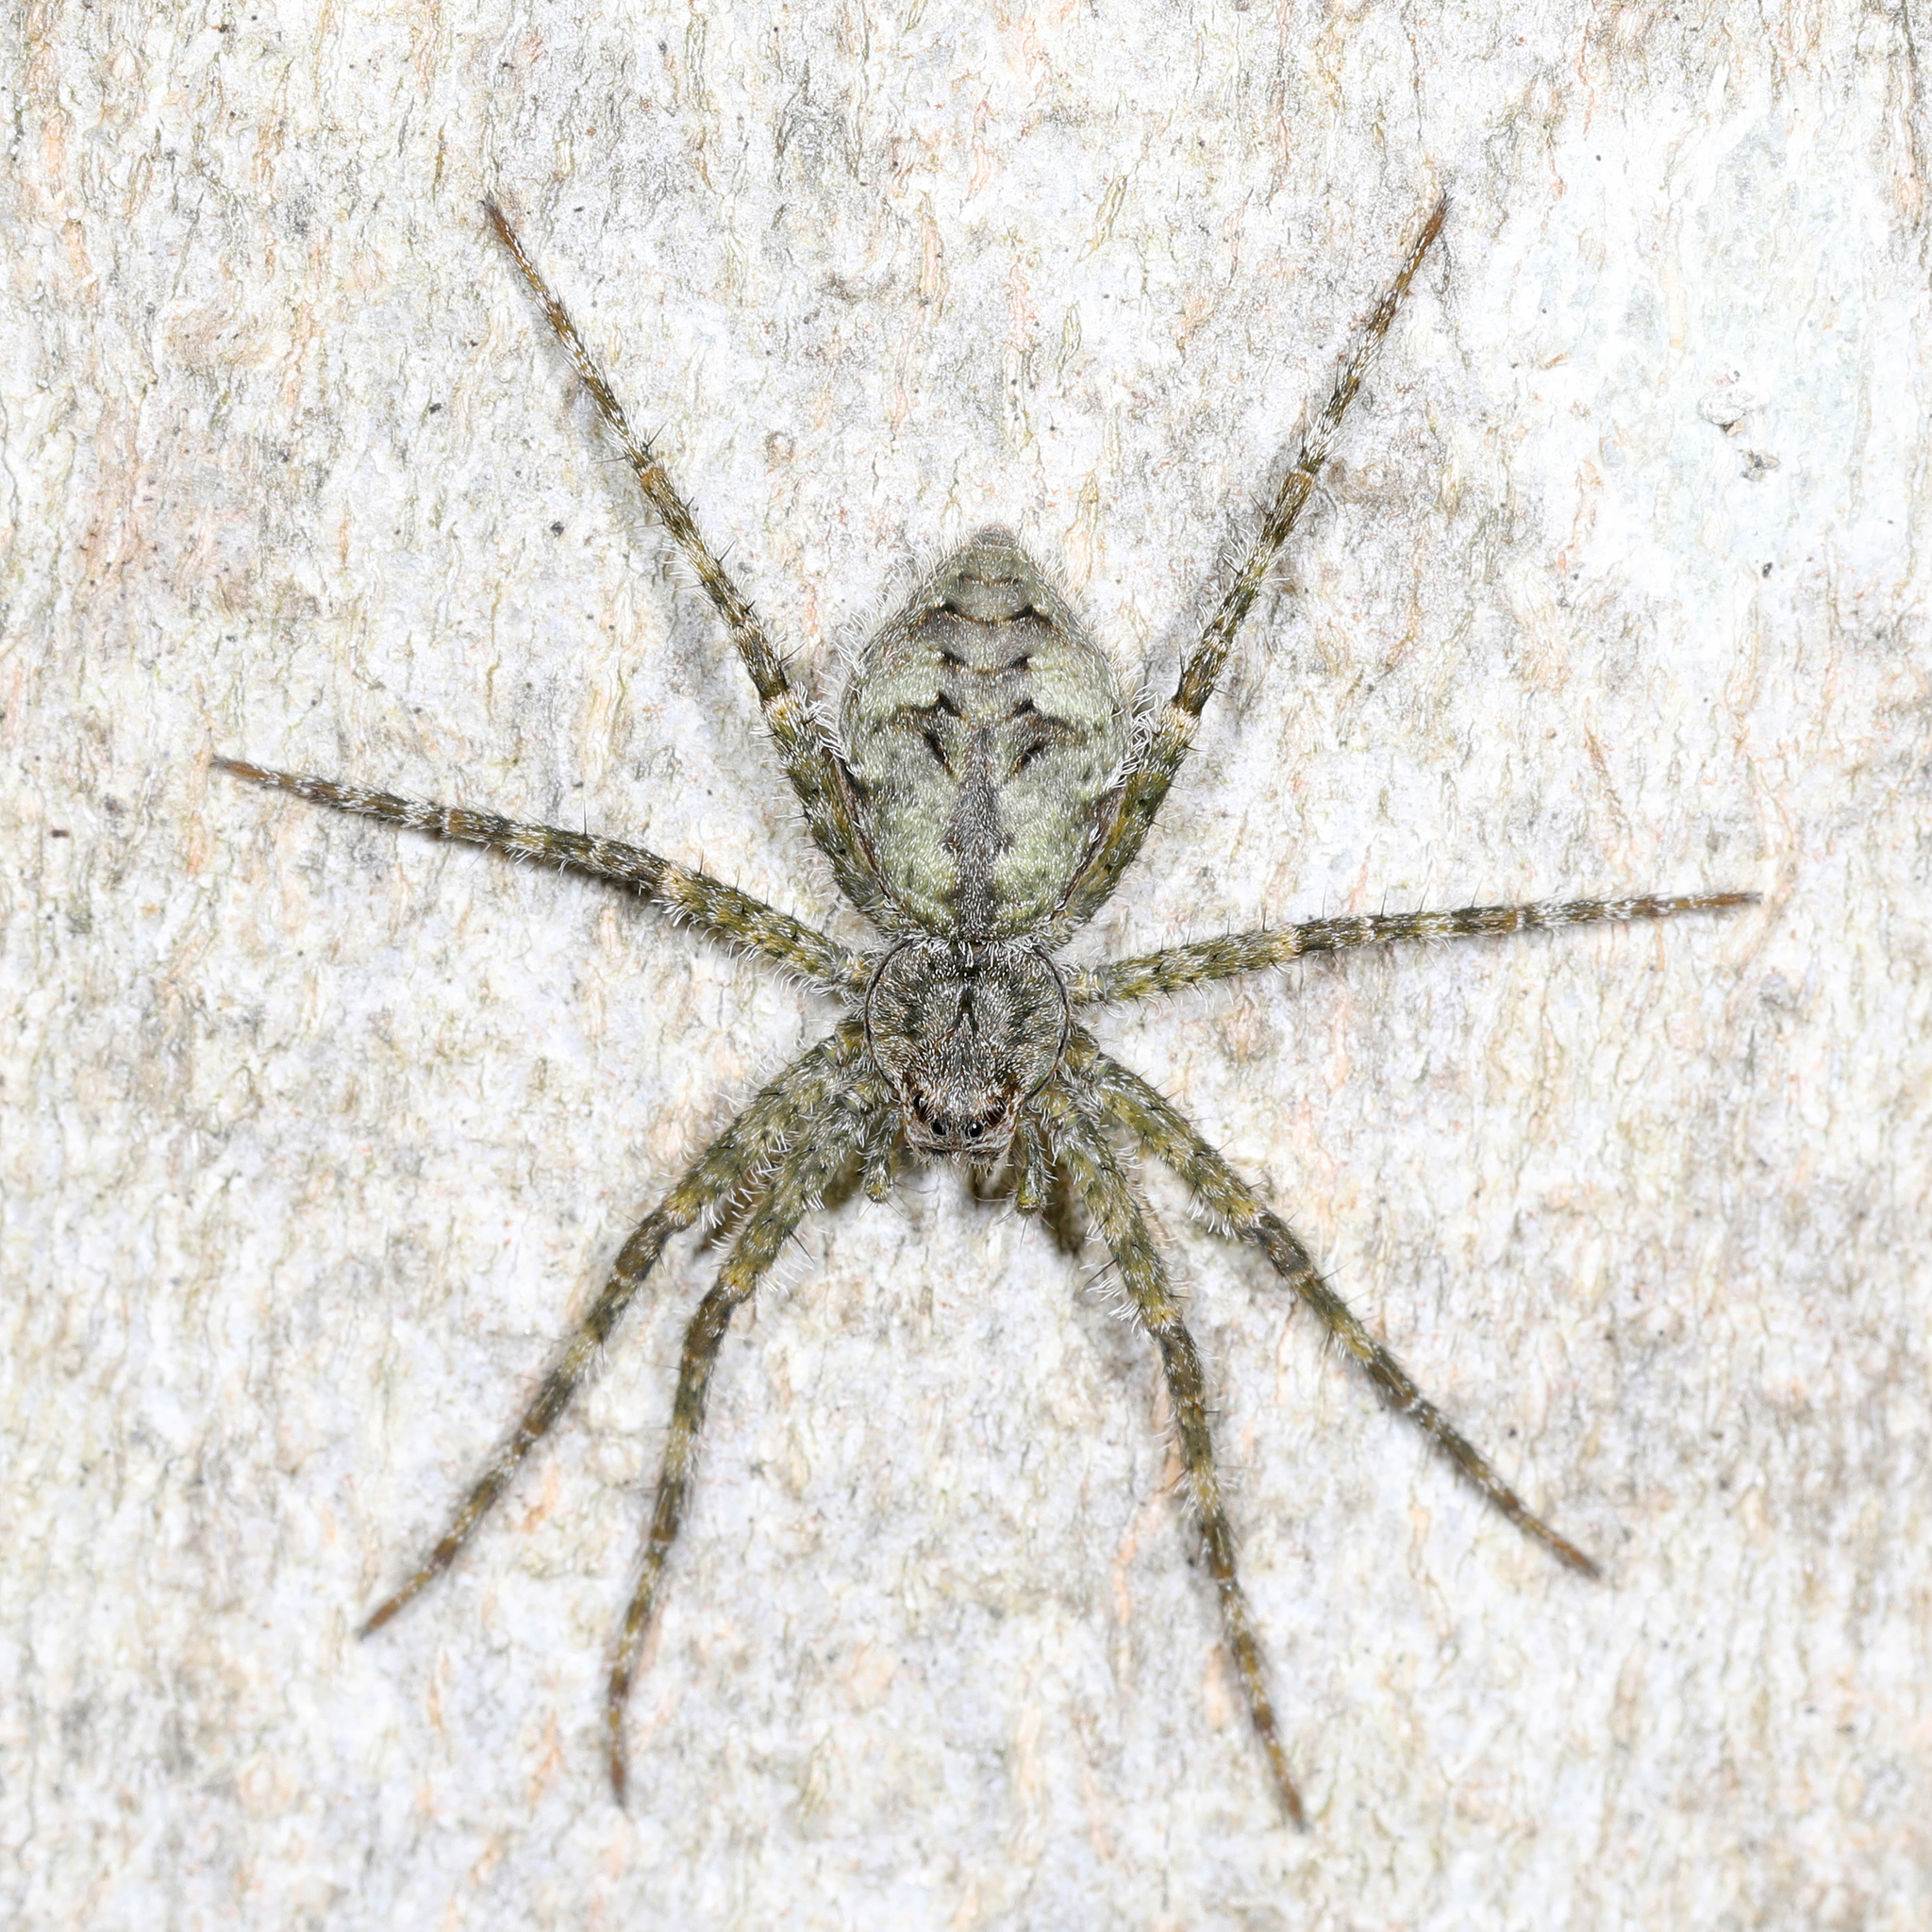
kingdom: Animalia
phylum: Arthropoda
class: Arachnida
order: Araneae
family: Pisauridae
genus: Dolomedes
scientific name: Dolomedes albineus
